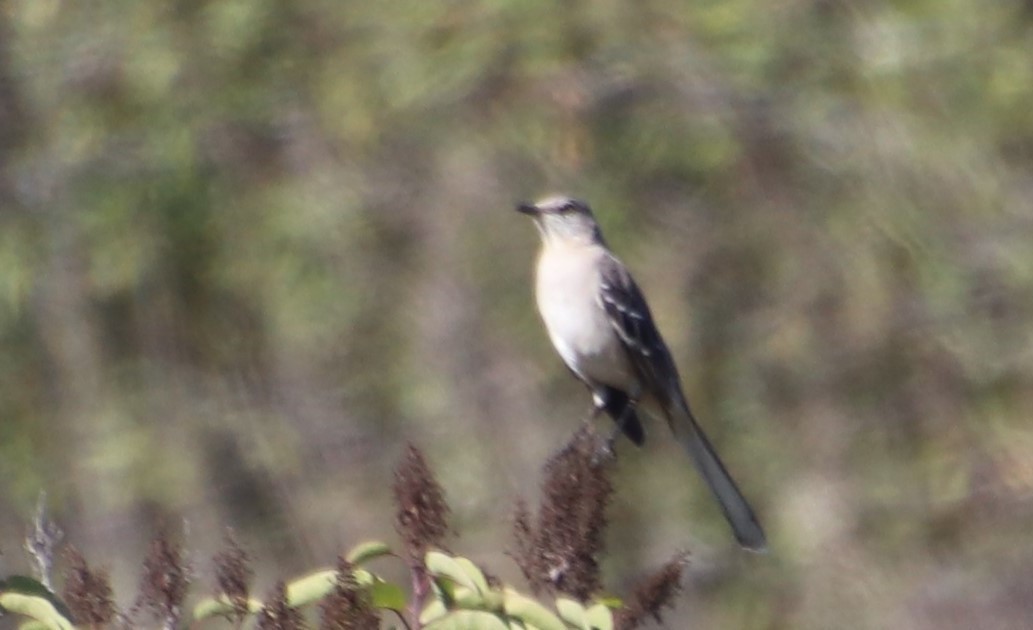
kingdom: Animalia
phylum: Chordata
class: Aves
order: Passeriformes
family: Mimidae
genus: Mimus
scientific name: Mimus polyglottos
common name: Northern mockingbird
